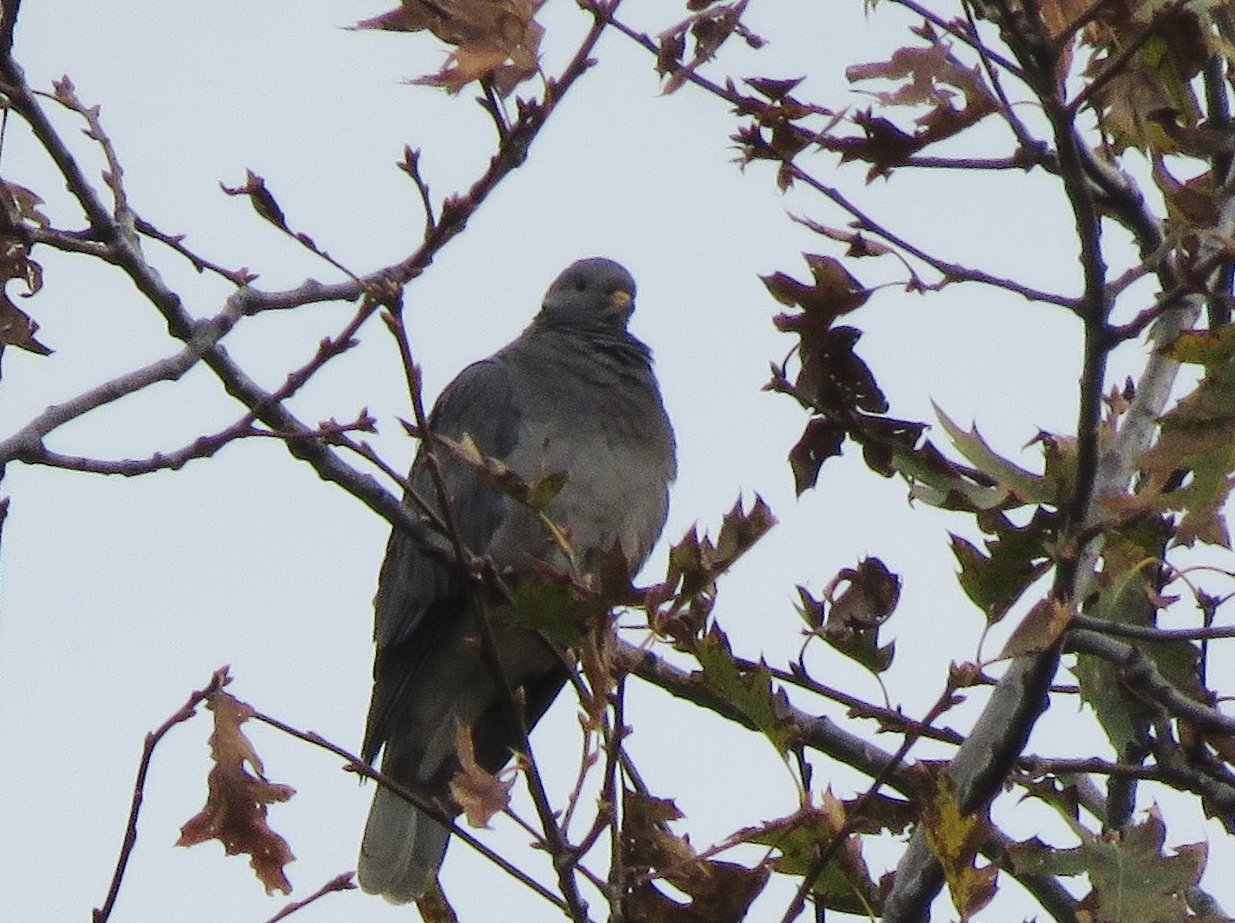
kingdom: Animalia
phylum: Chordata
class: Aves
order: Columbiformes
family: Columbidae
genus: Patagioenas
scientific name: Patagioenas fasciata
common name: Band-tailed pigeon
